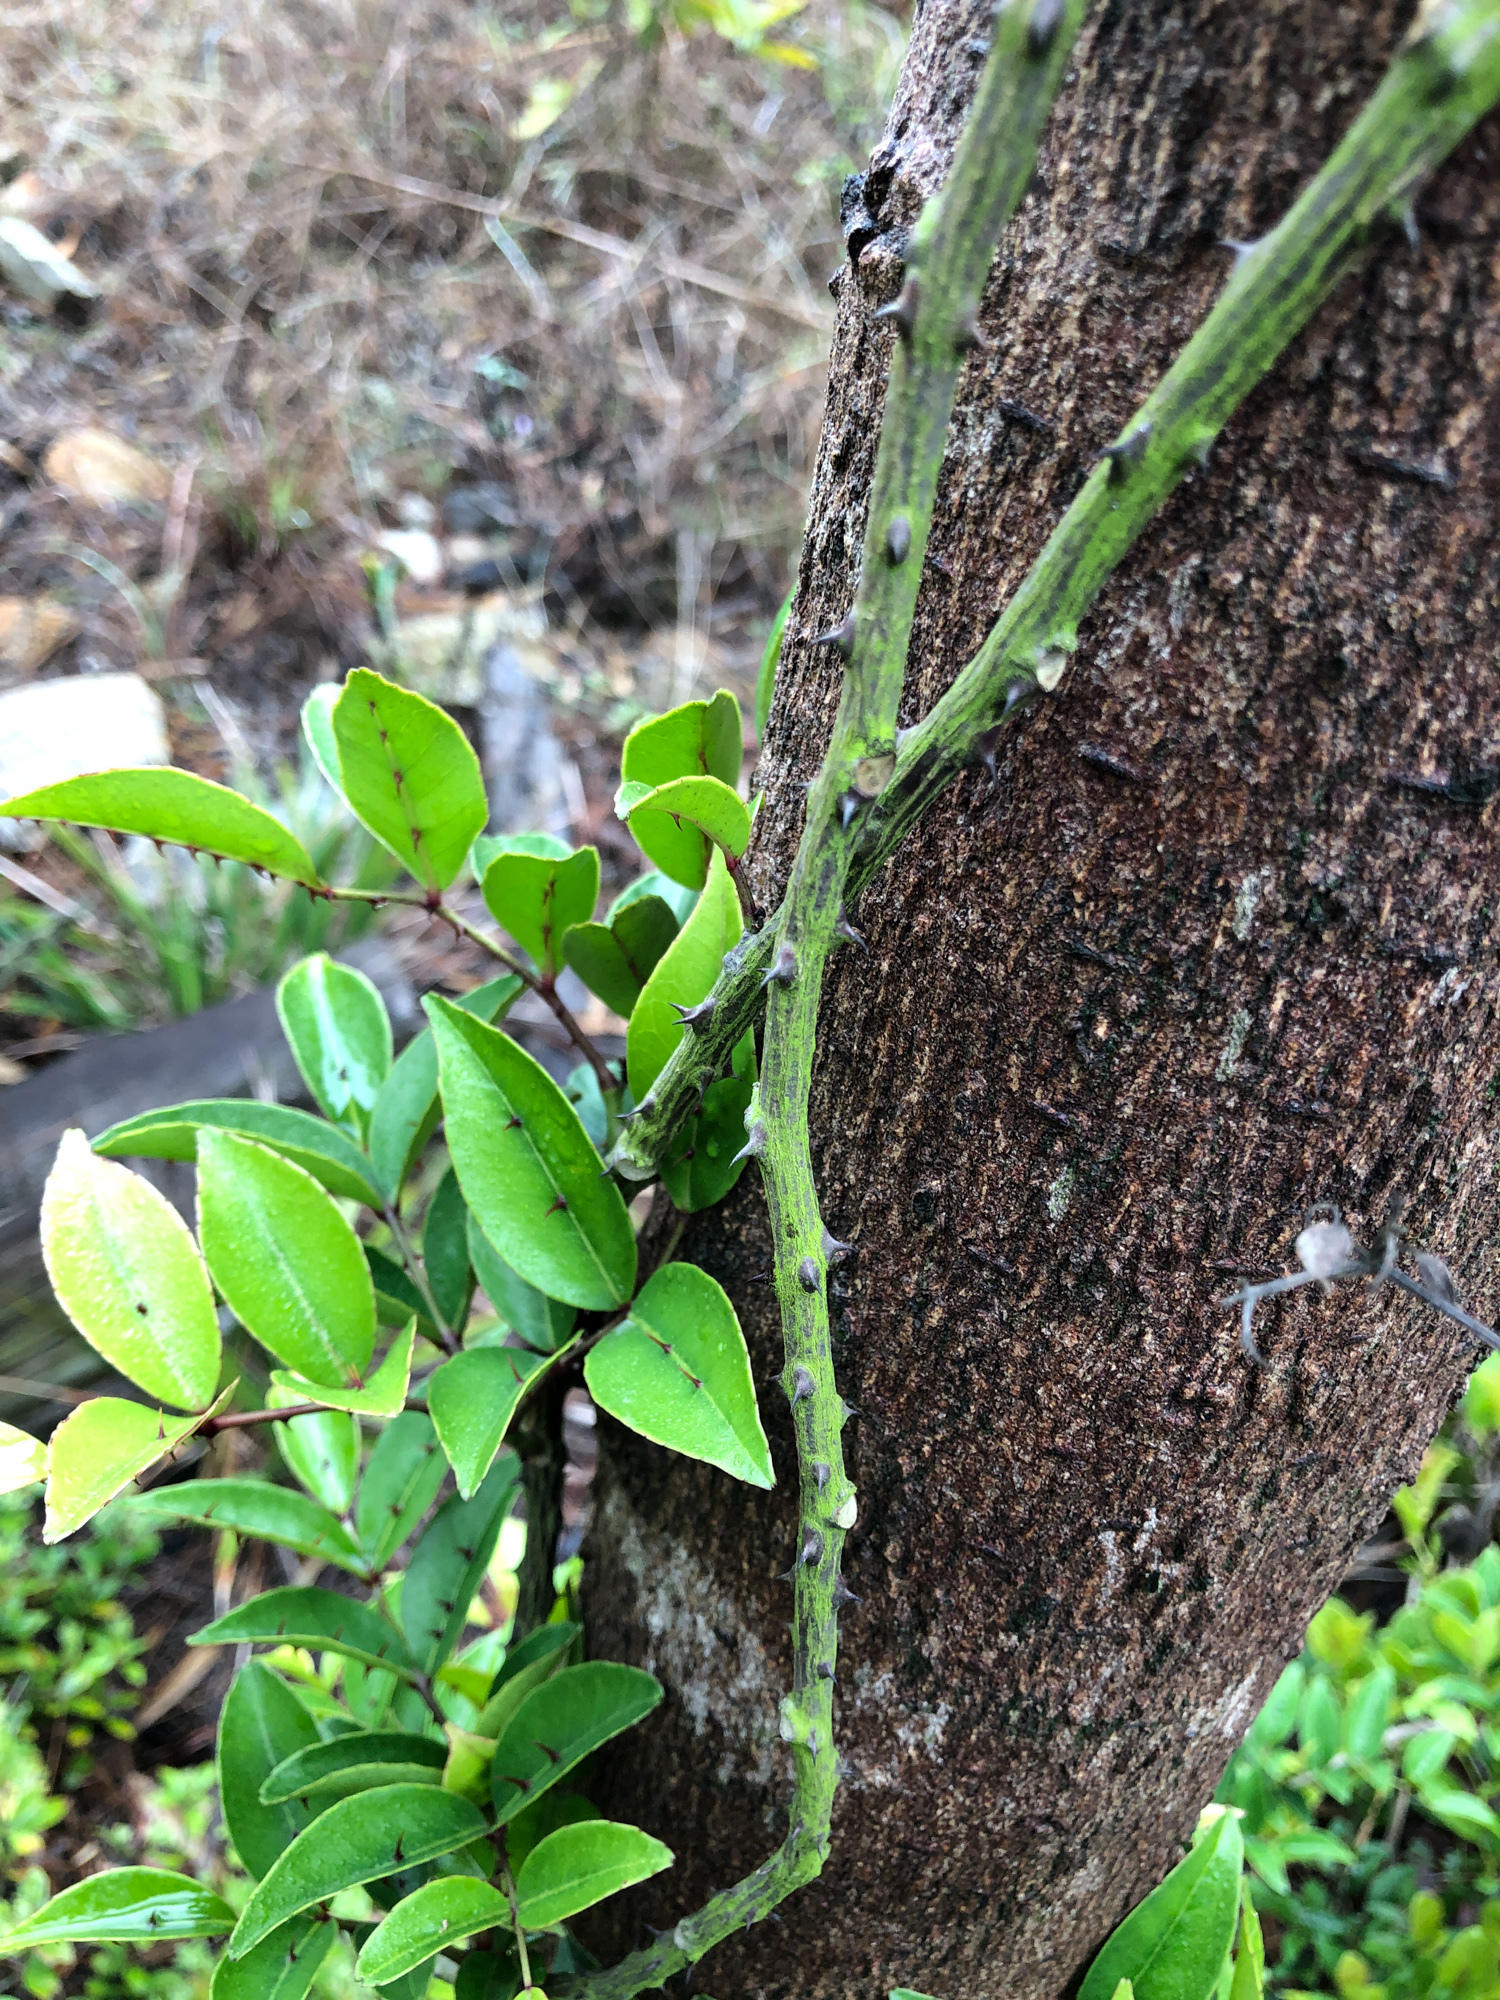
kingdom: Plantae
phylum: Tracheophyta
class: Magnoliopsida
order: Sapindales
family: Rutaceae
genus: Zanthoxylum
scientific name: Zanthoxylum nitidum
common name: Shiny-leaf prickly-ash
